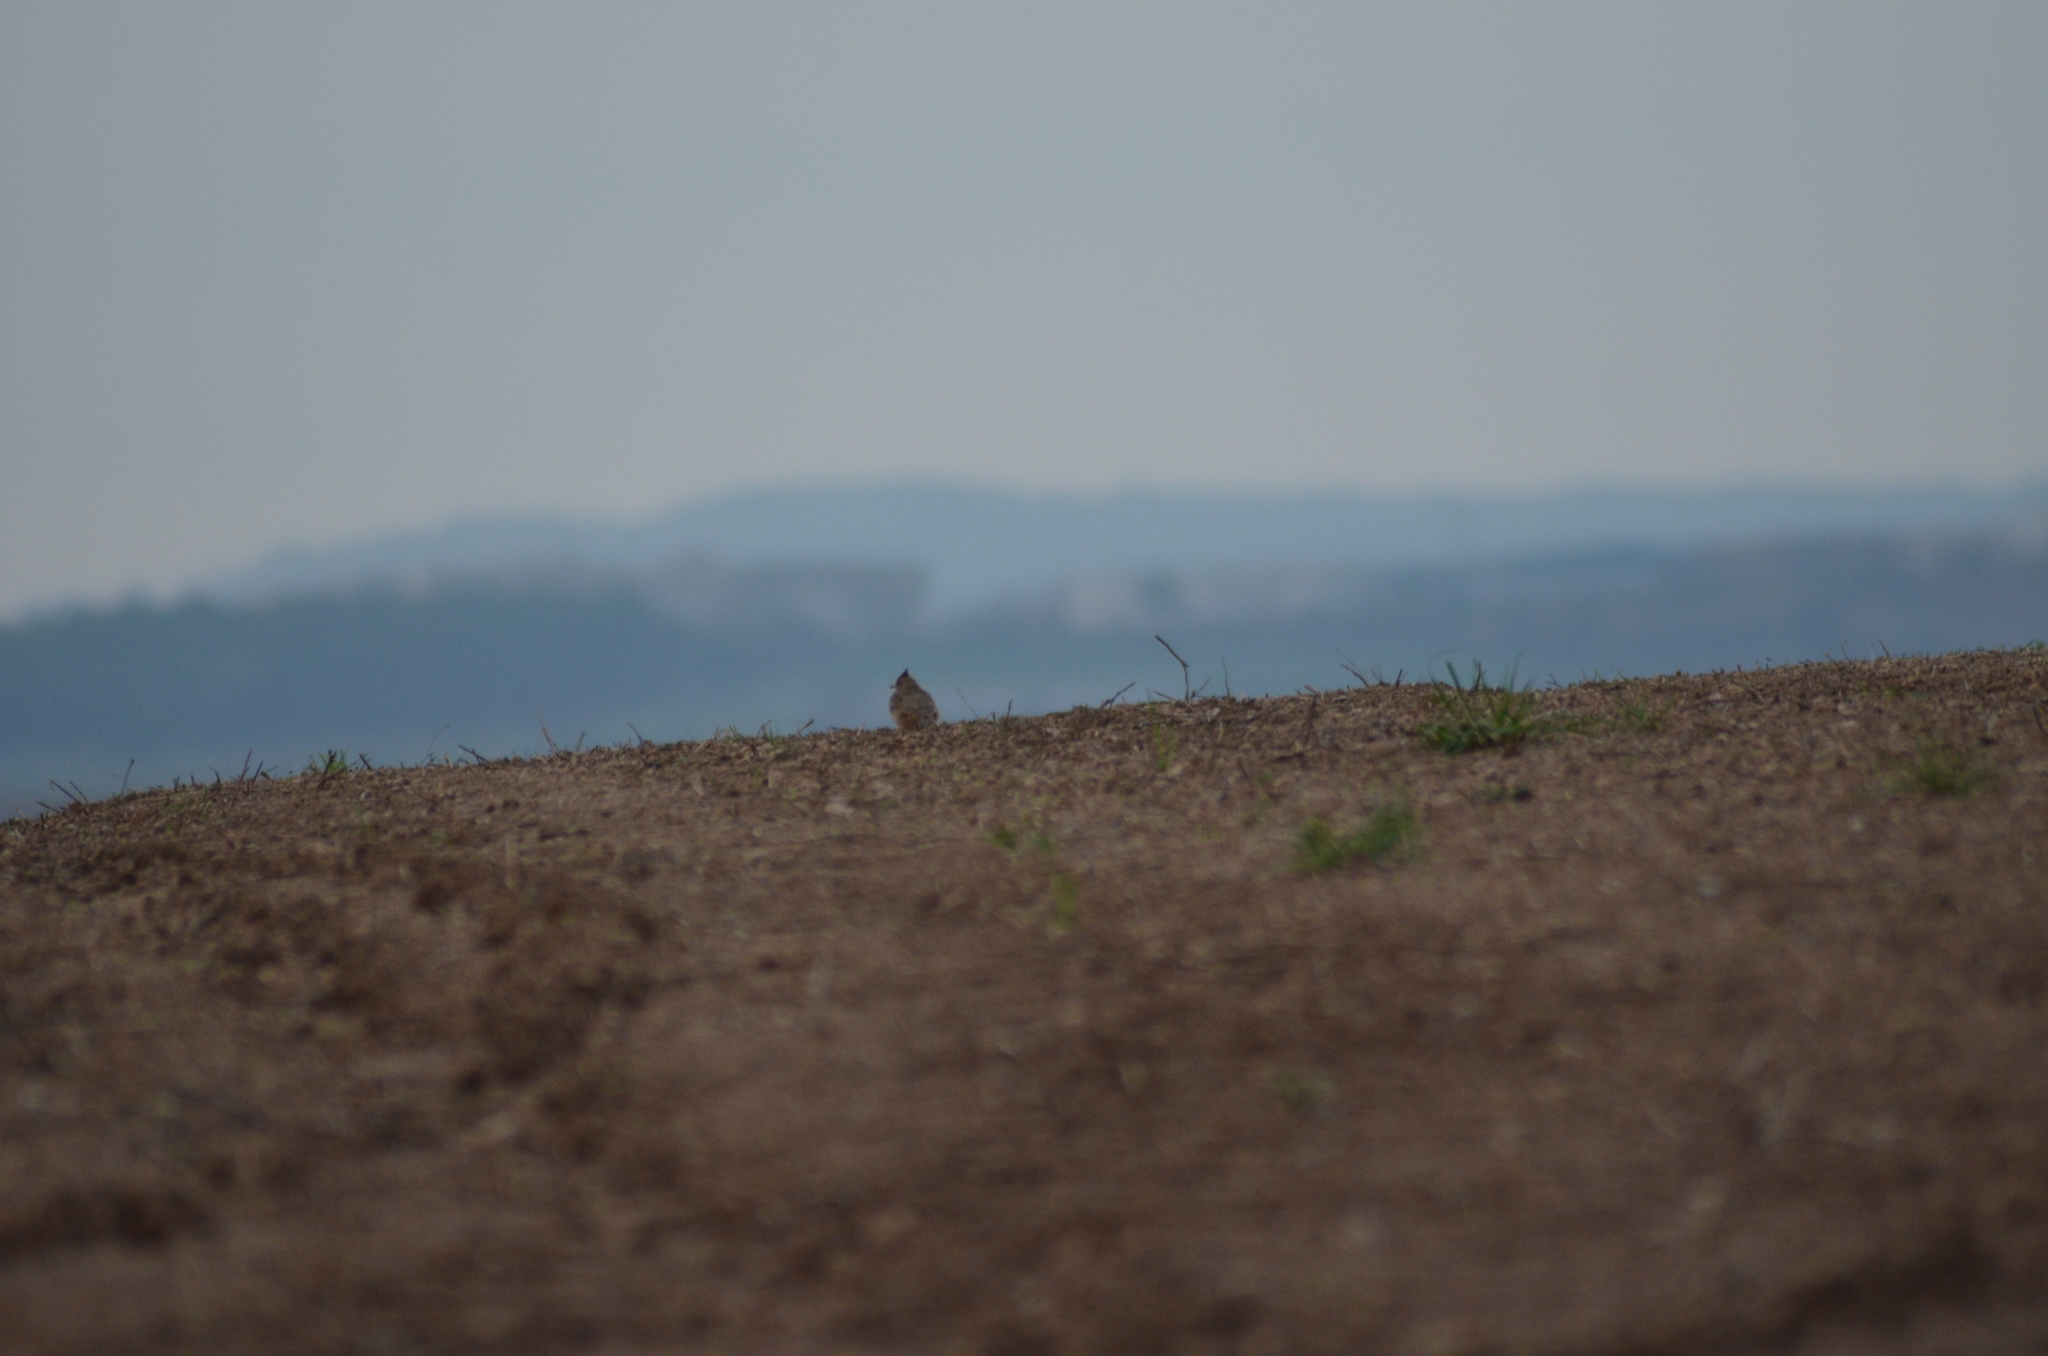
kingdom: Animalia
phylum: Chordata
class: Aves
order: Passeriformes
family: Alaudidae
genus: Galerida
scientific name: Galerida cristata
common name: Crested lark
